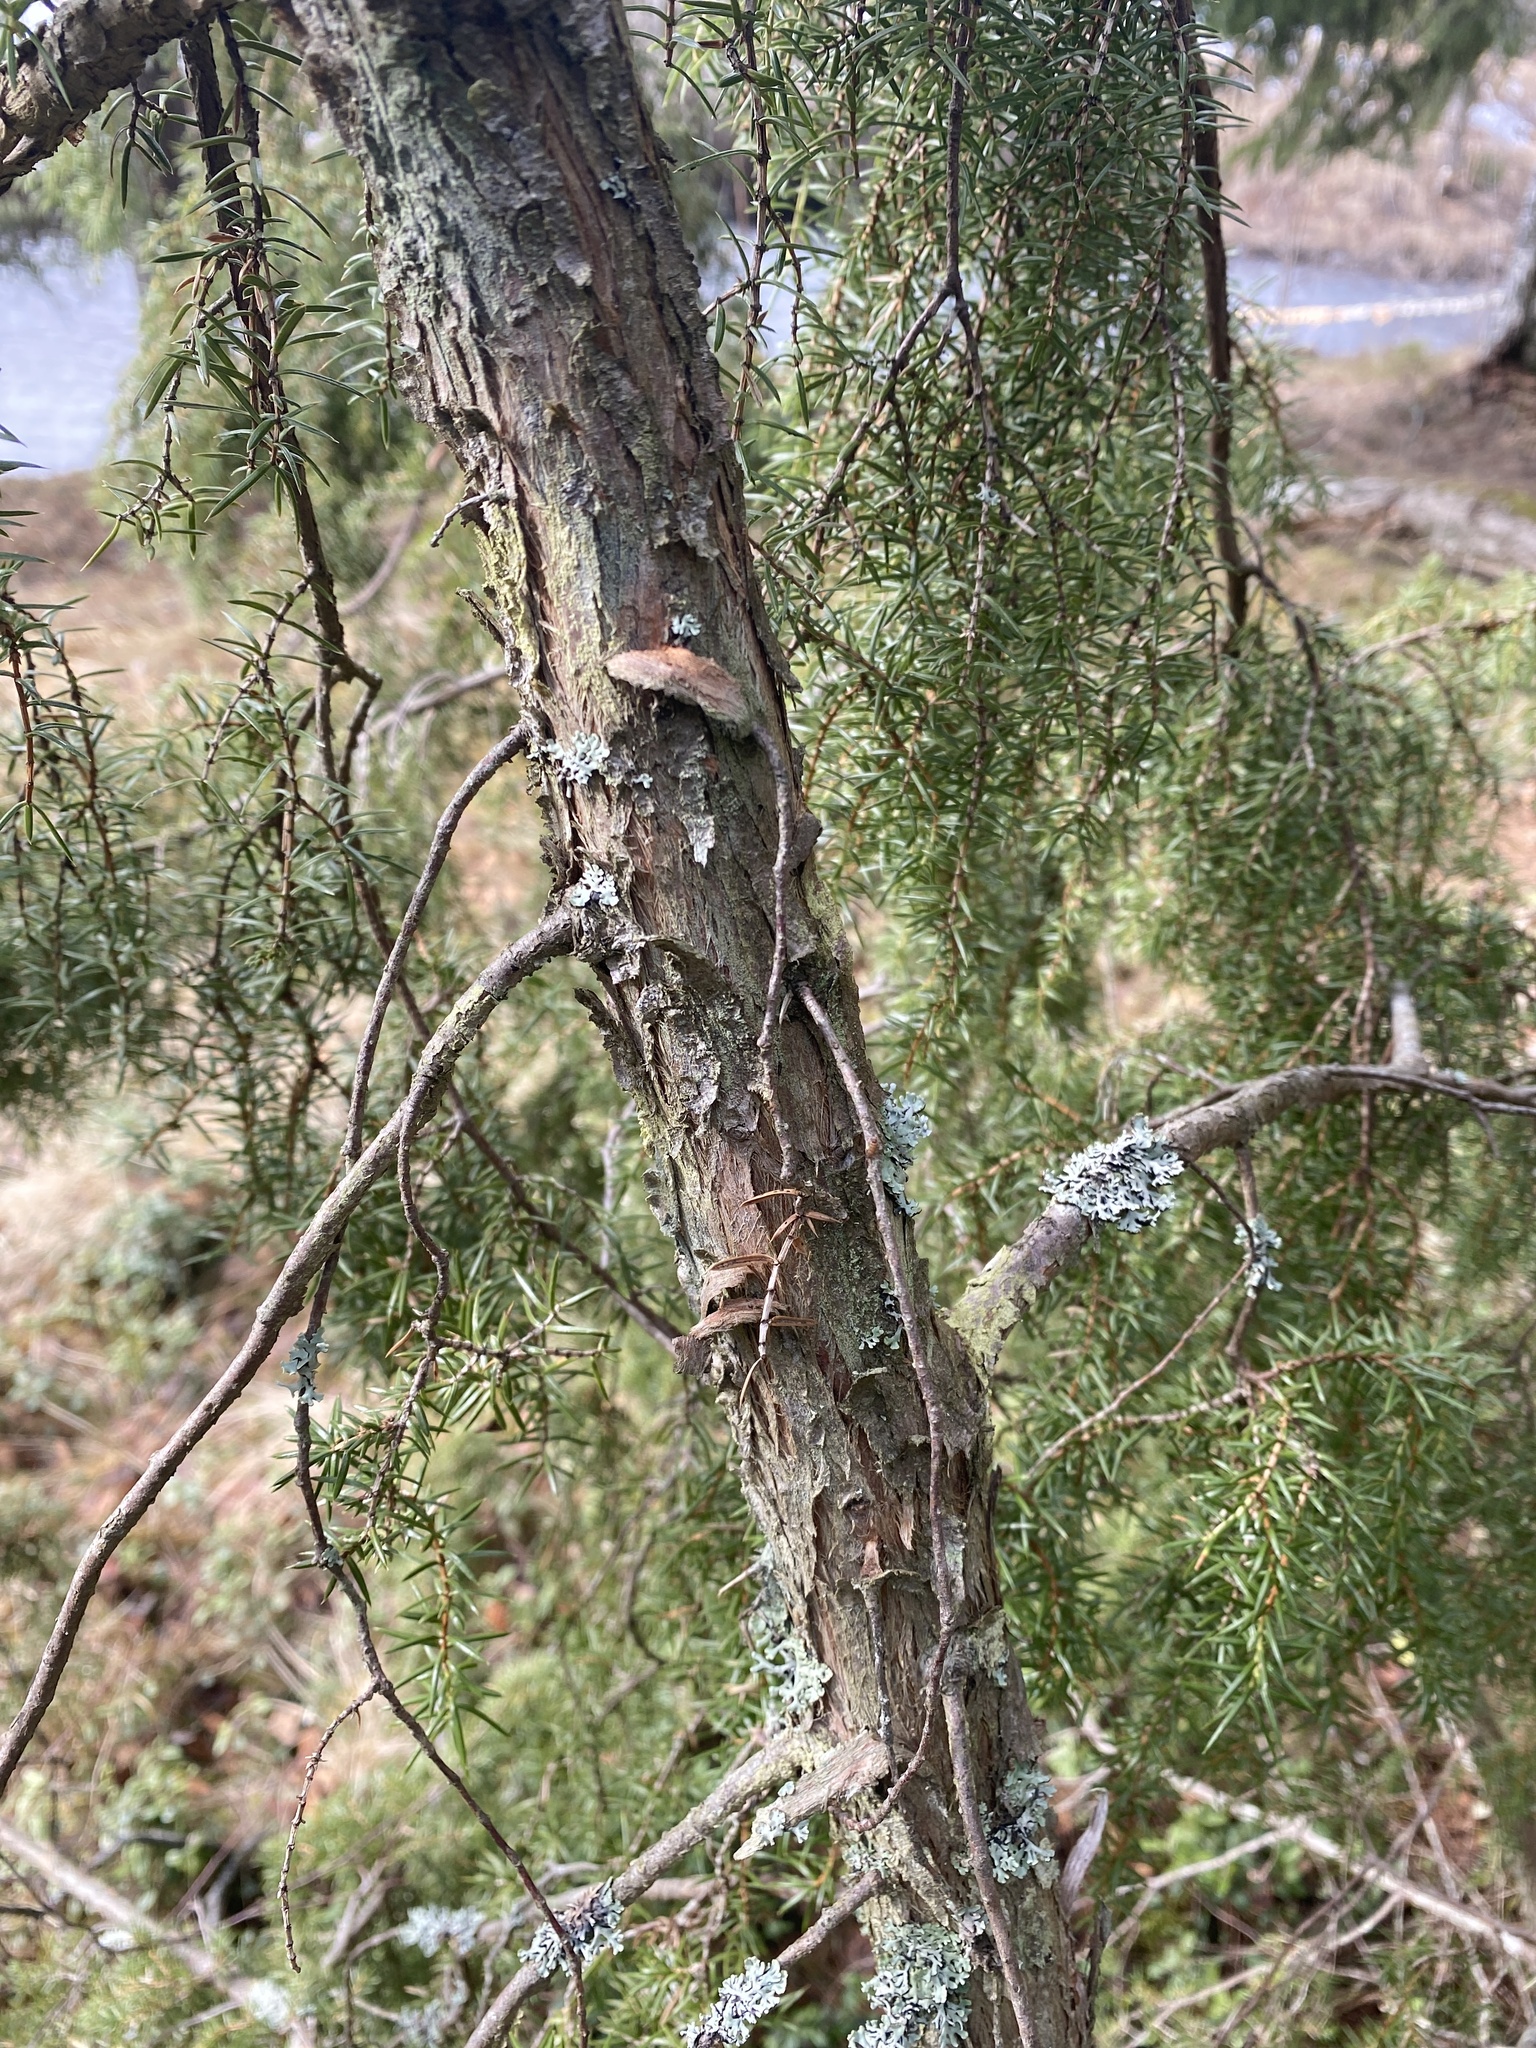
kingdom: Plantae
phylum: Tracheophyta
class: Pinopsida
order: Pinales
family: Cupressaceae
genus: Juniperus
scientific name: Juniperus communis
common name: Common juniper
